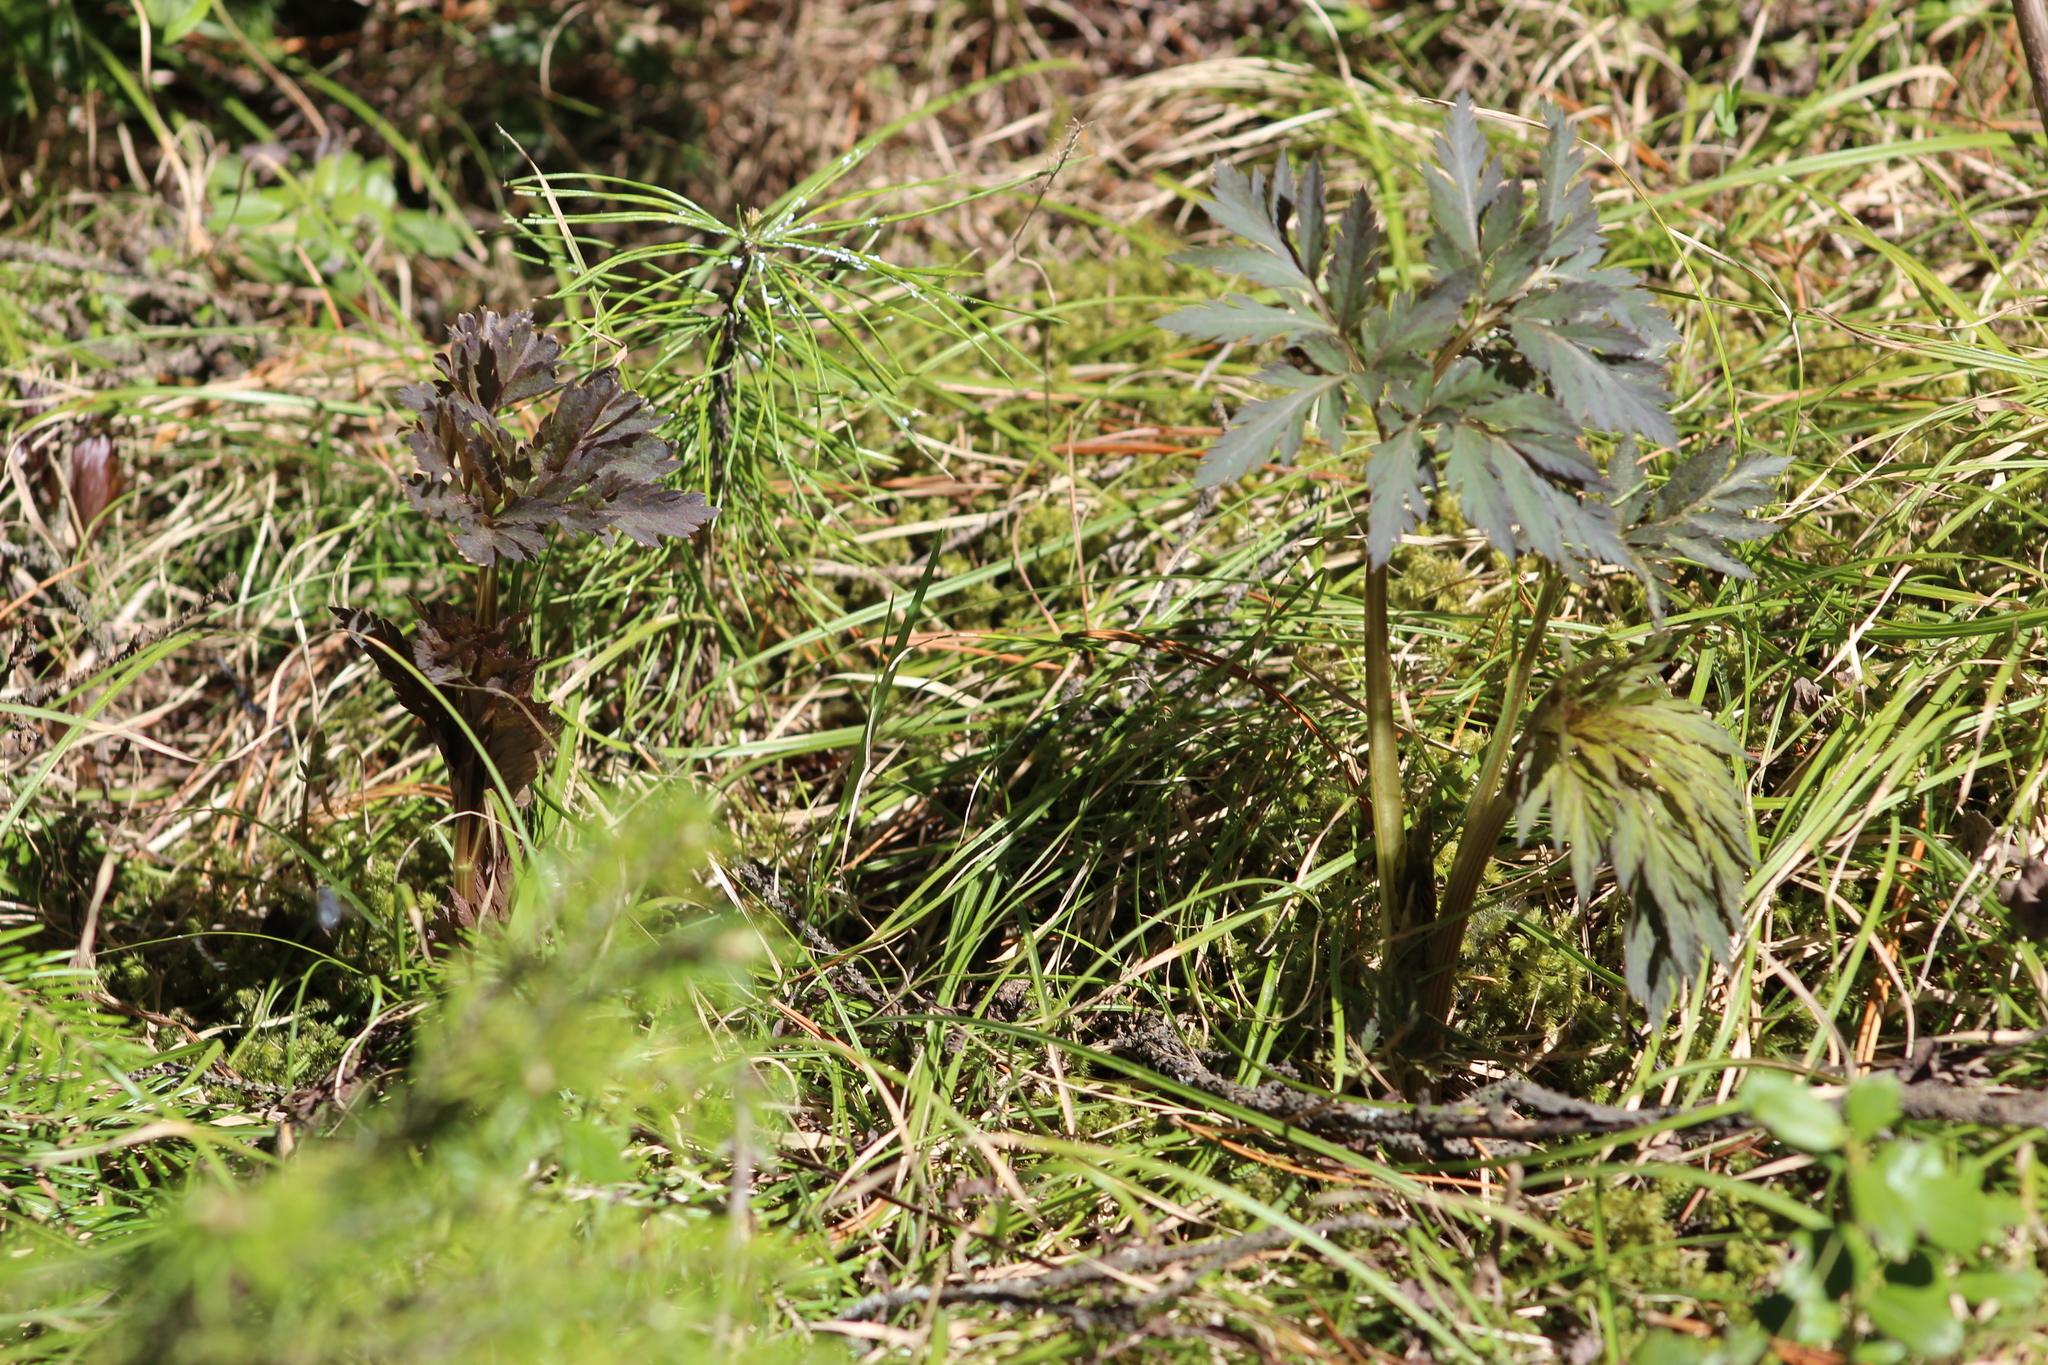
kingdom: Plantae
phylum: Tracheophyta
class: Magnoliopsida
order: Apiales
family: Apiaceae
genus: Pleurospermum
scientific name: Pleurospermum uralense
